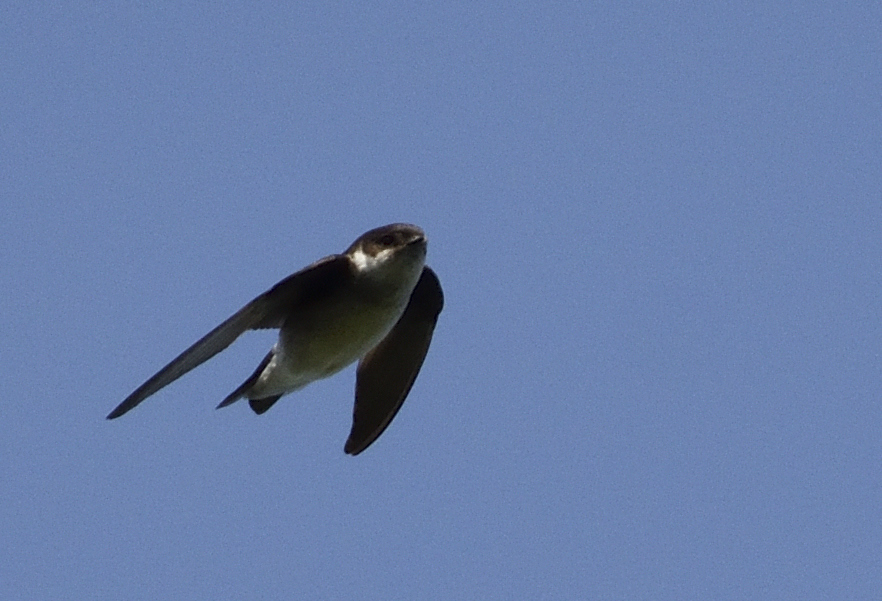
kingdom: Animalia
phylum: Chordata
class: Aves
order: Passeriformes
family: Hirundinidae
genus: Delichon
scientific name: Delichon urbicum
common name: Common house martin
